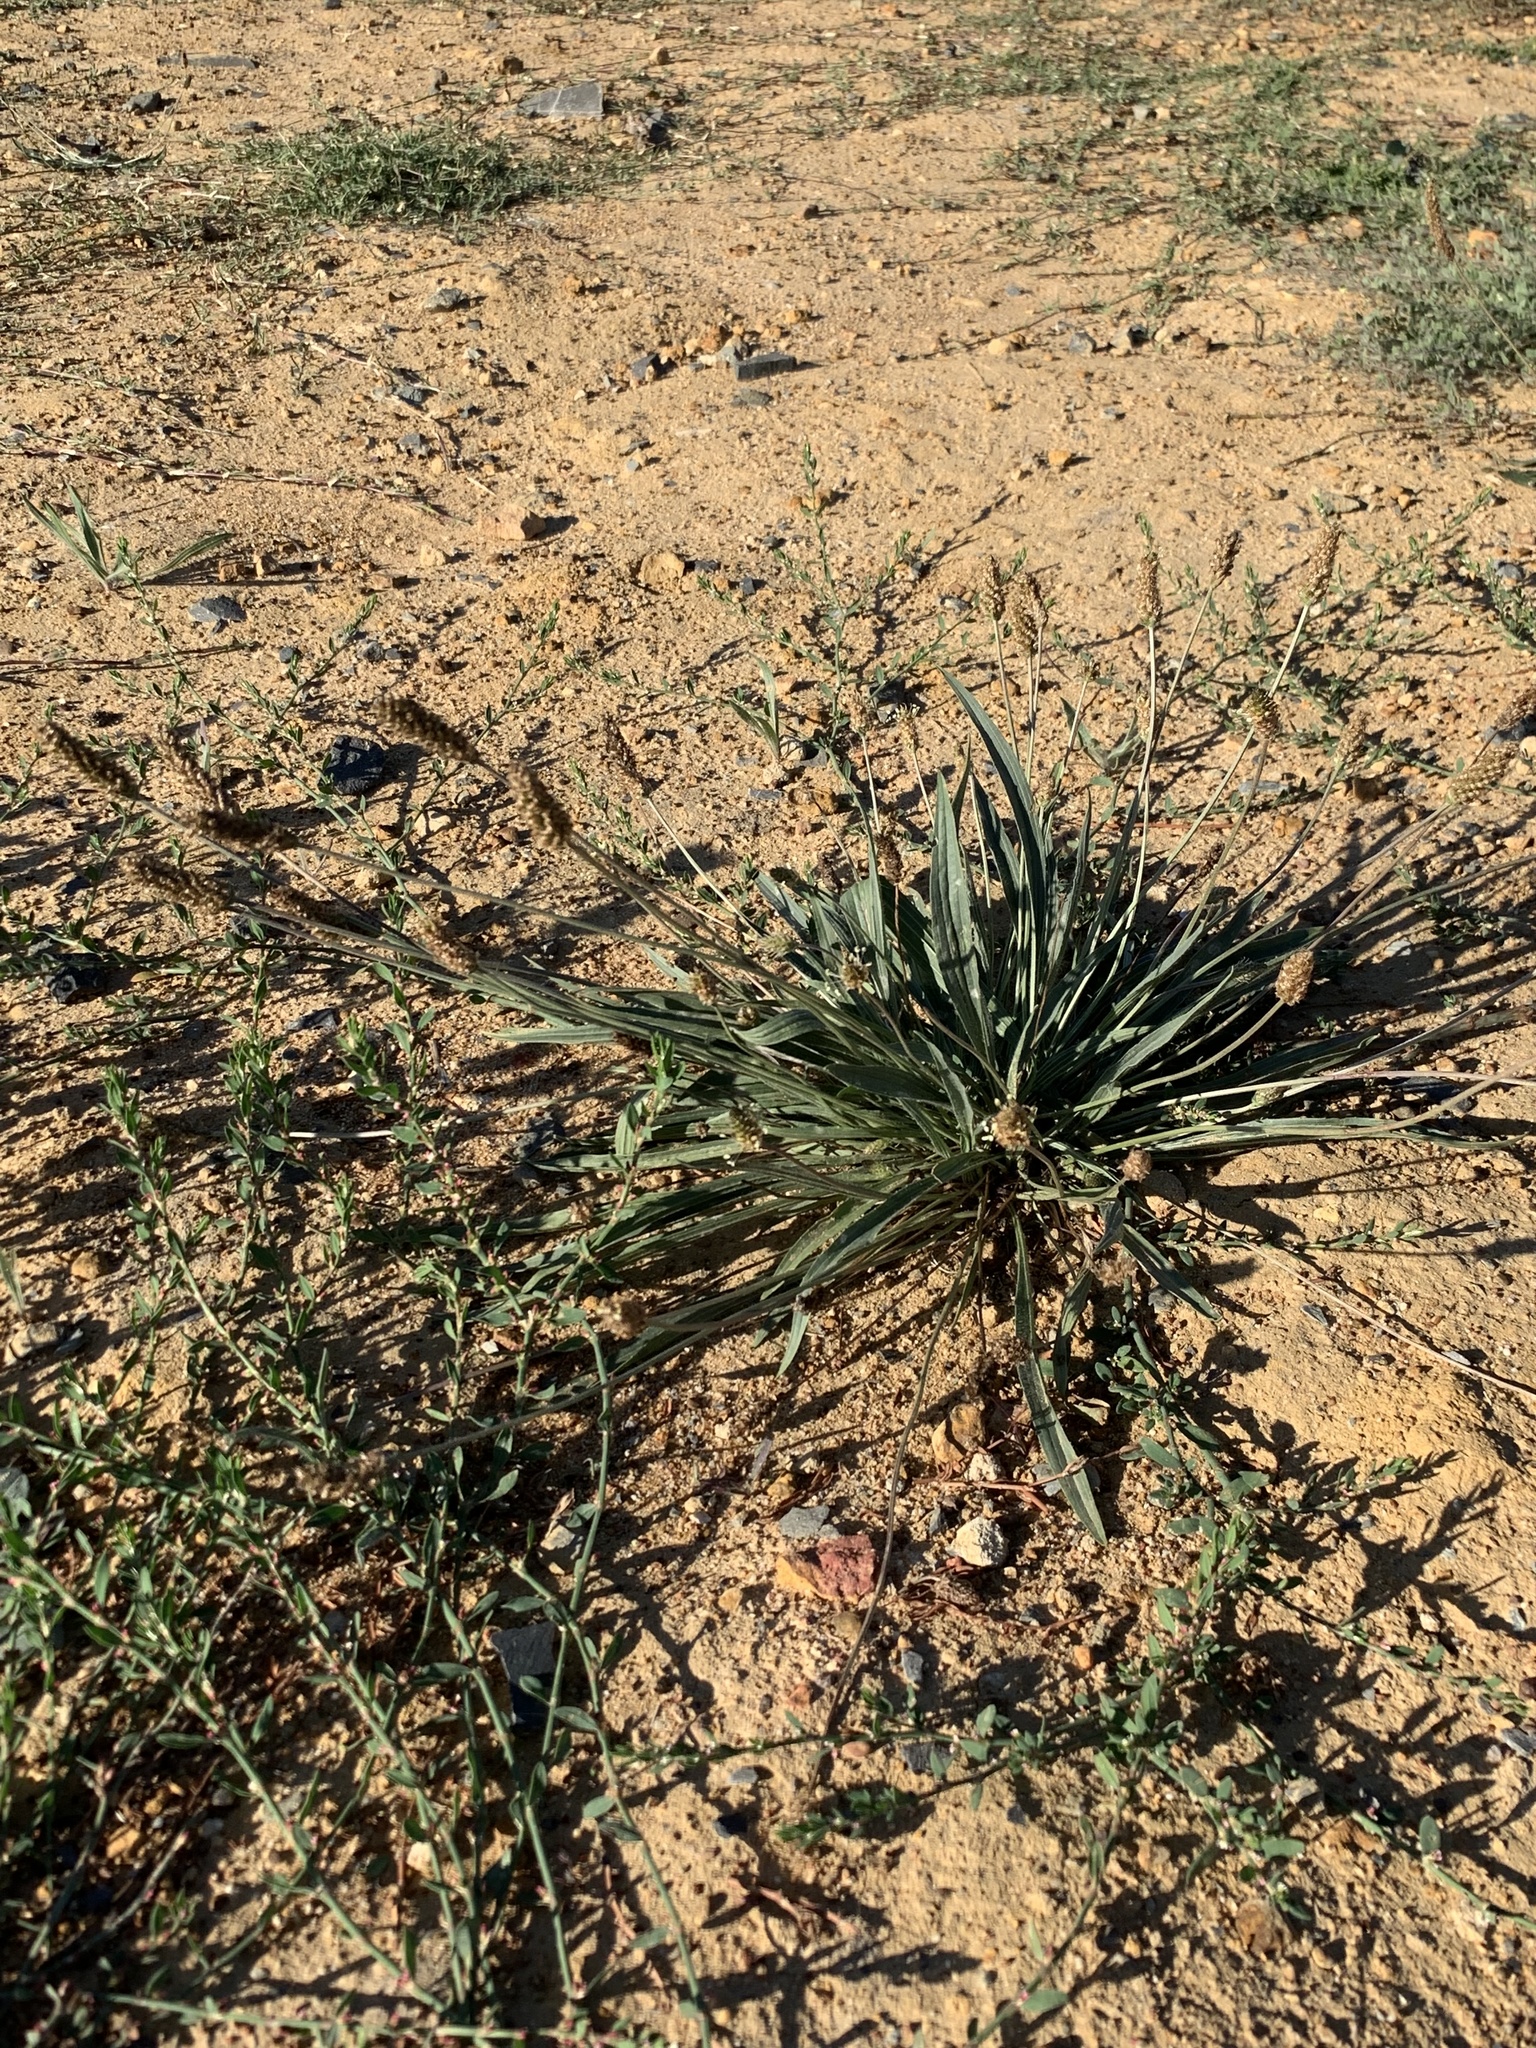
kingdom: Plantae
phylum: Tracheophyta
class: Magnoliopsida
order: Lamiales
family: Plantaginaceae
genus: Plantago
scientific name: Plantago lanceolata
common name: Ribwort plantain
